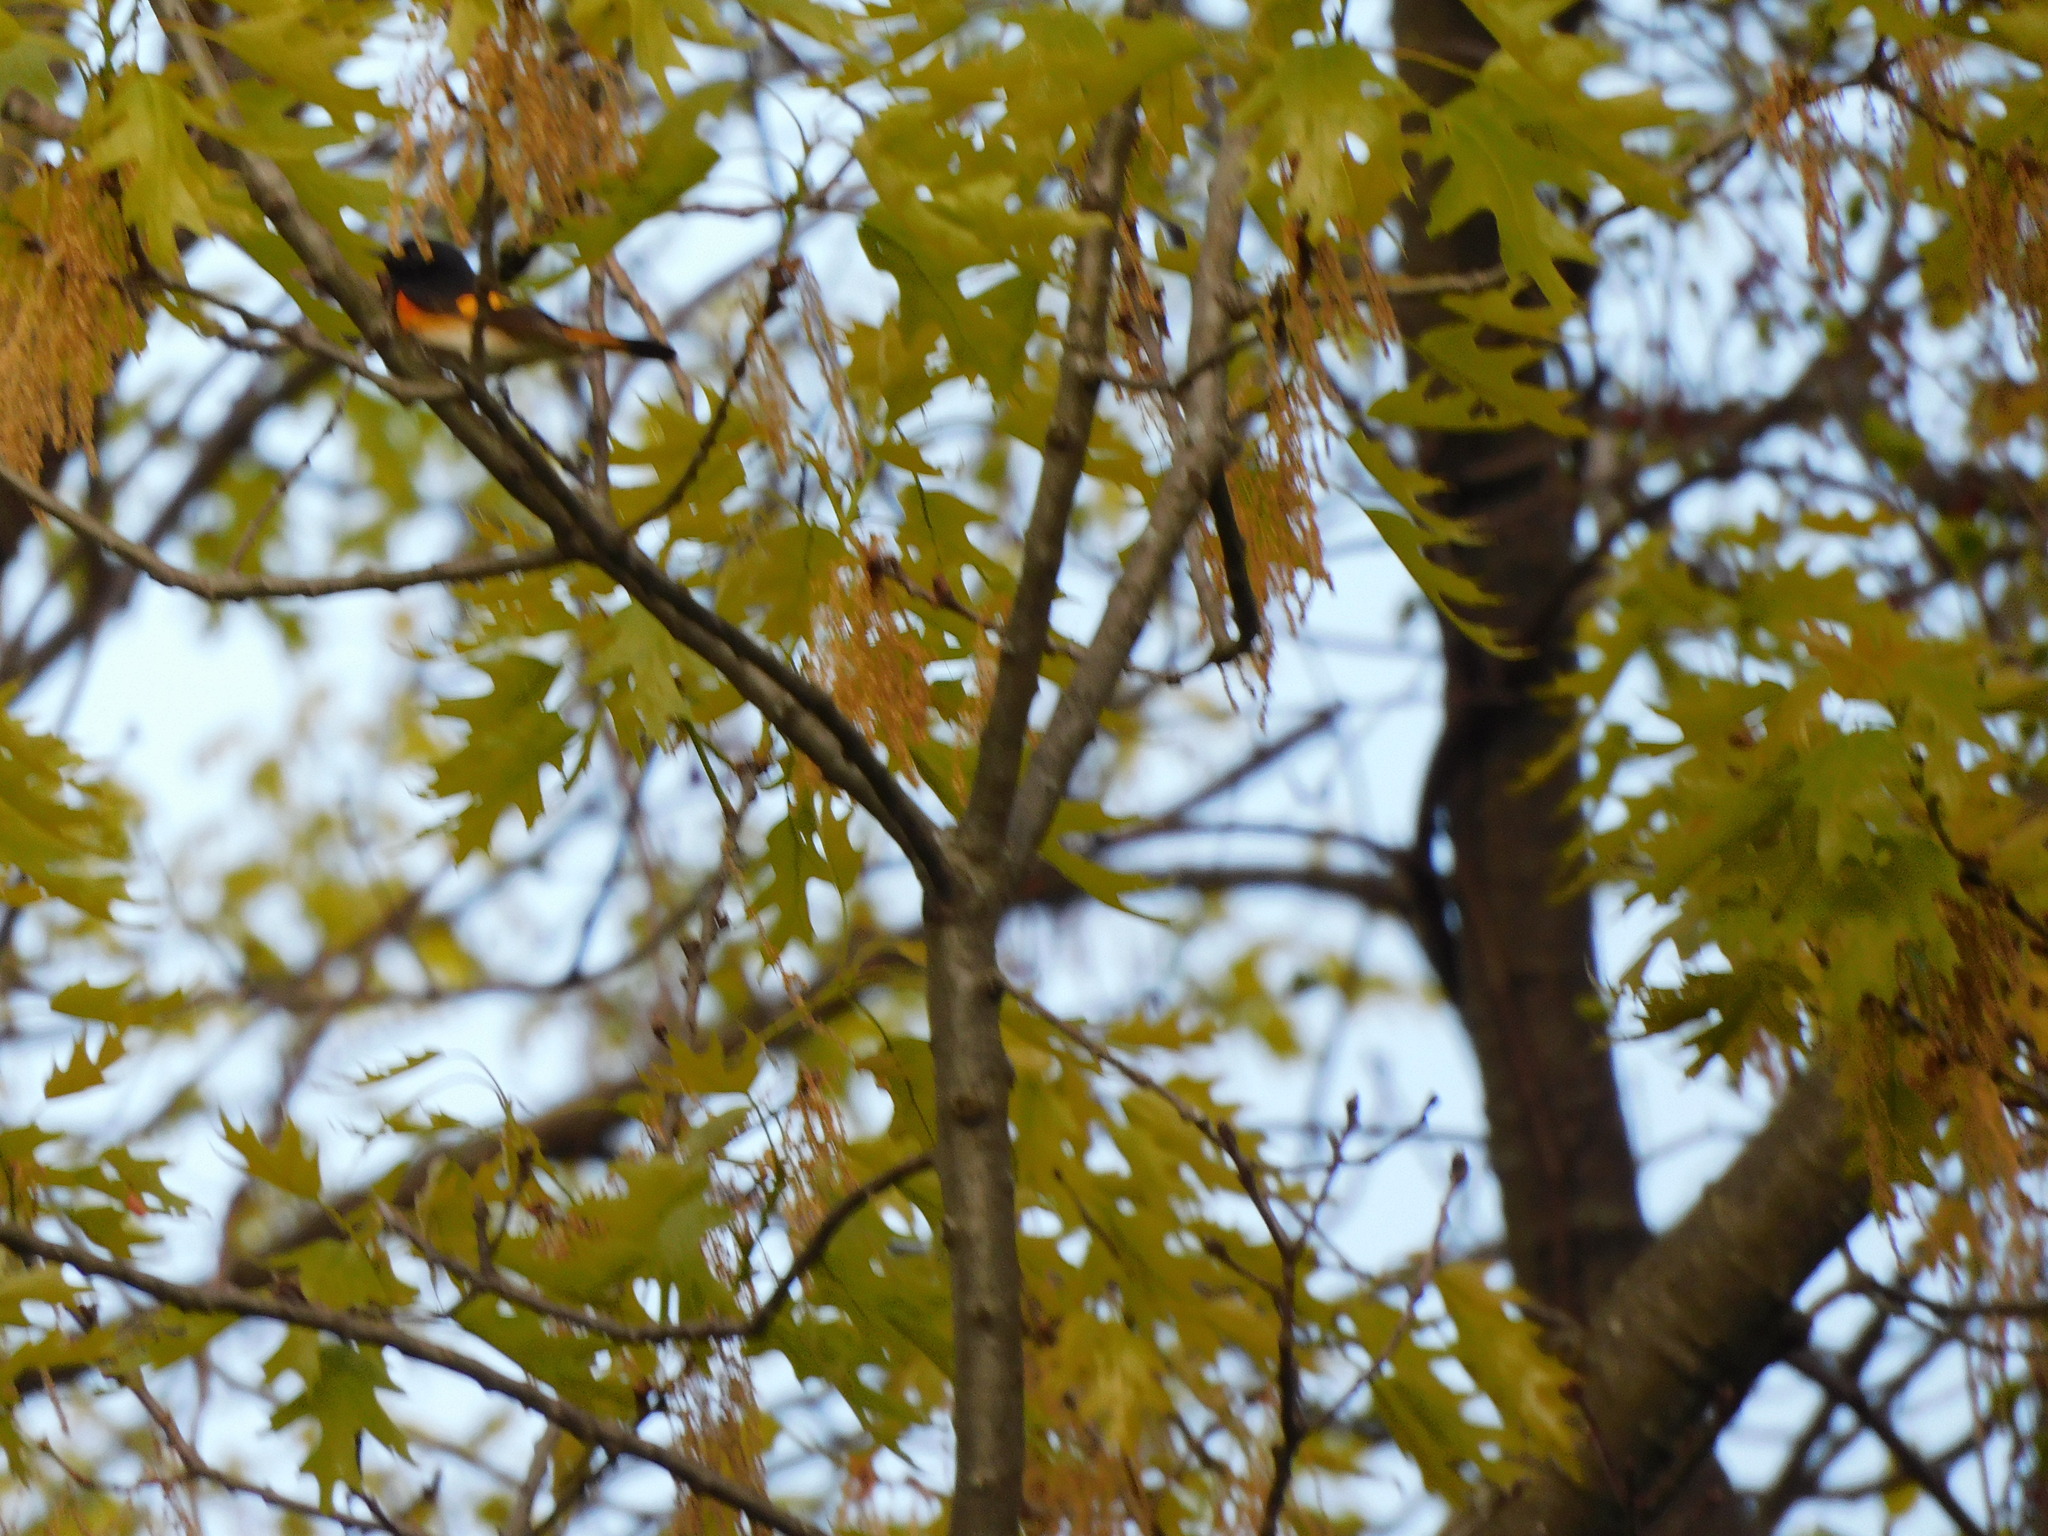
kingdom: Animalia
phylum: Chordata
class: Aves
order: Passeriformes
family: Parulidae
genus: Setophaga
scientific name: Setophaga ruticilla
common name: American redstart
